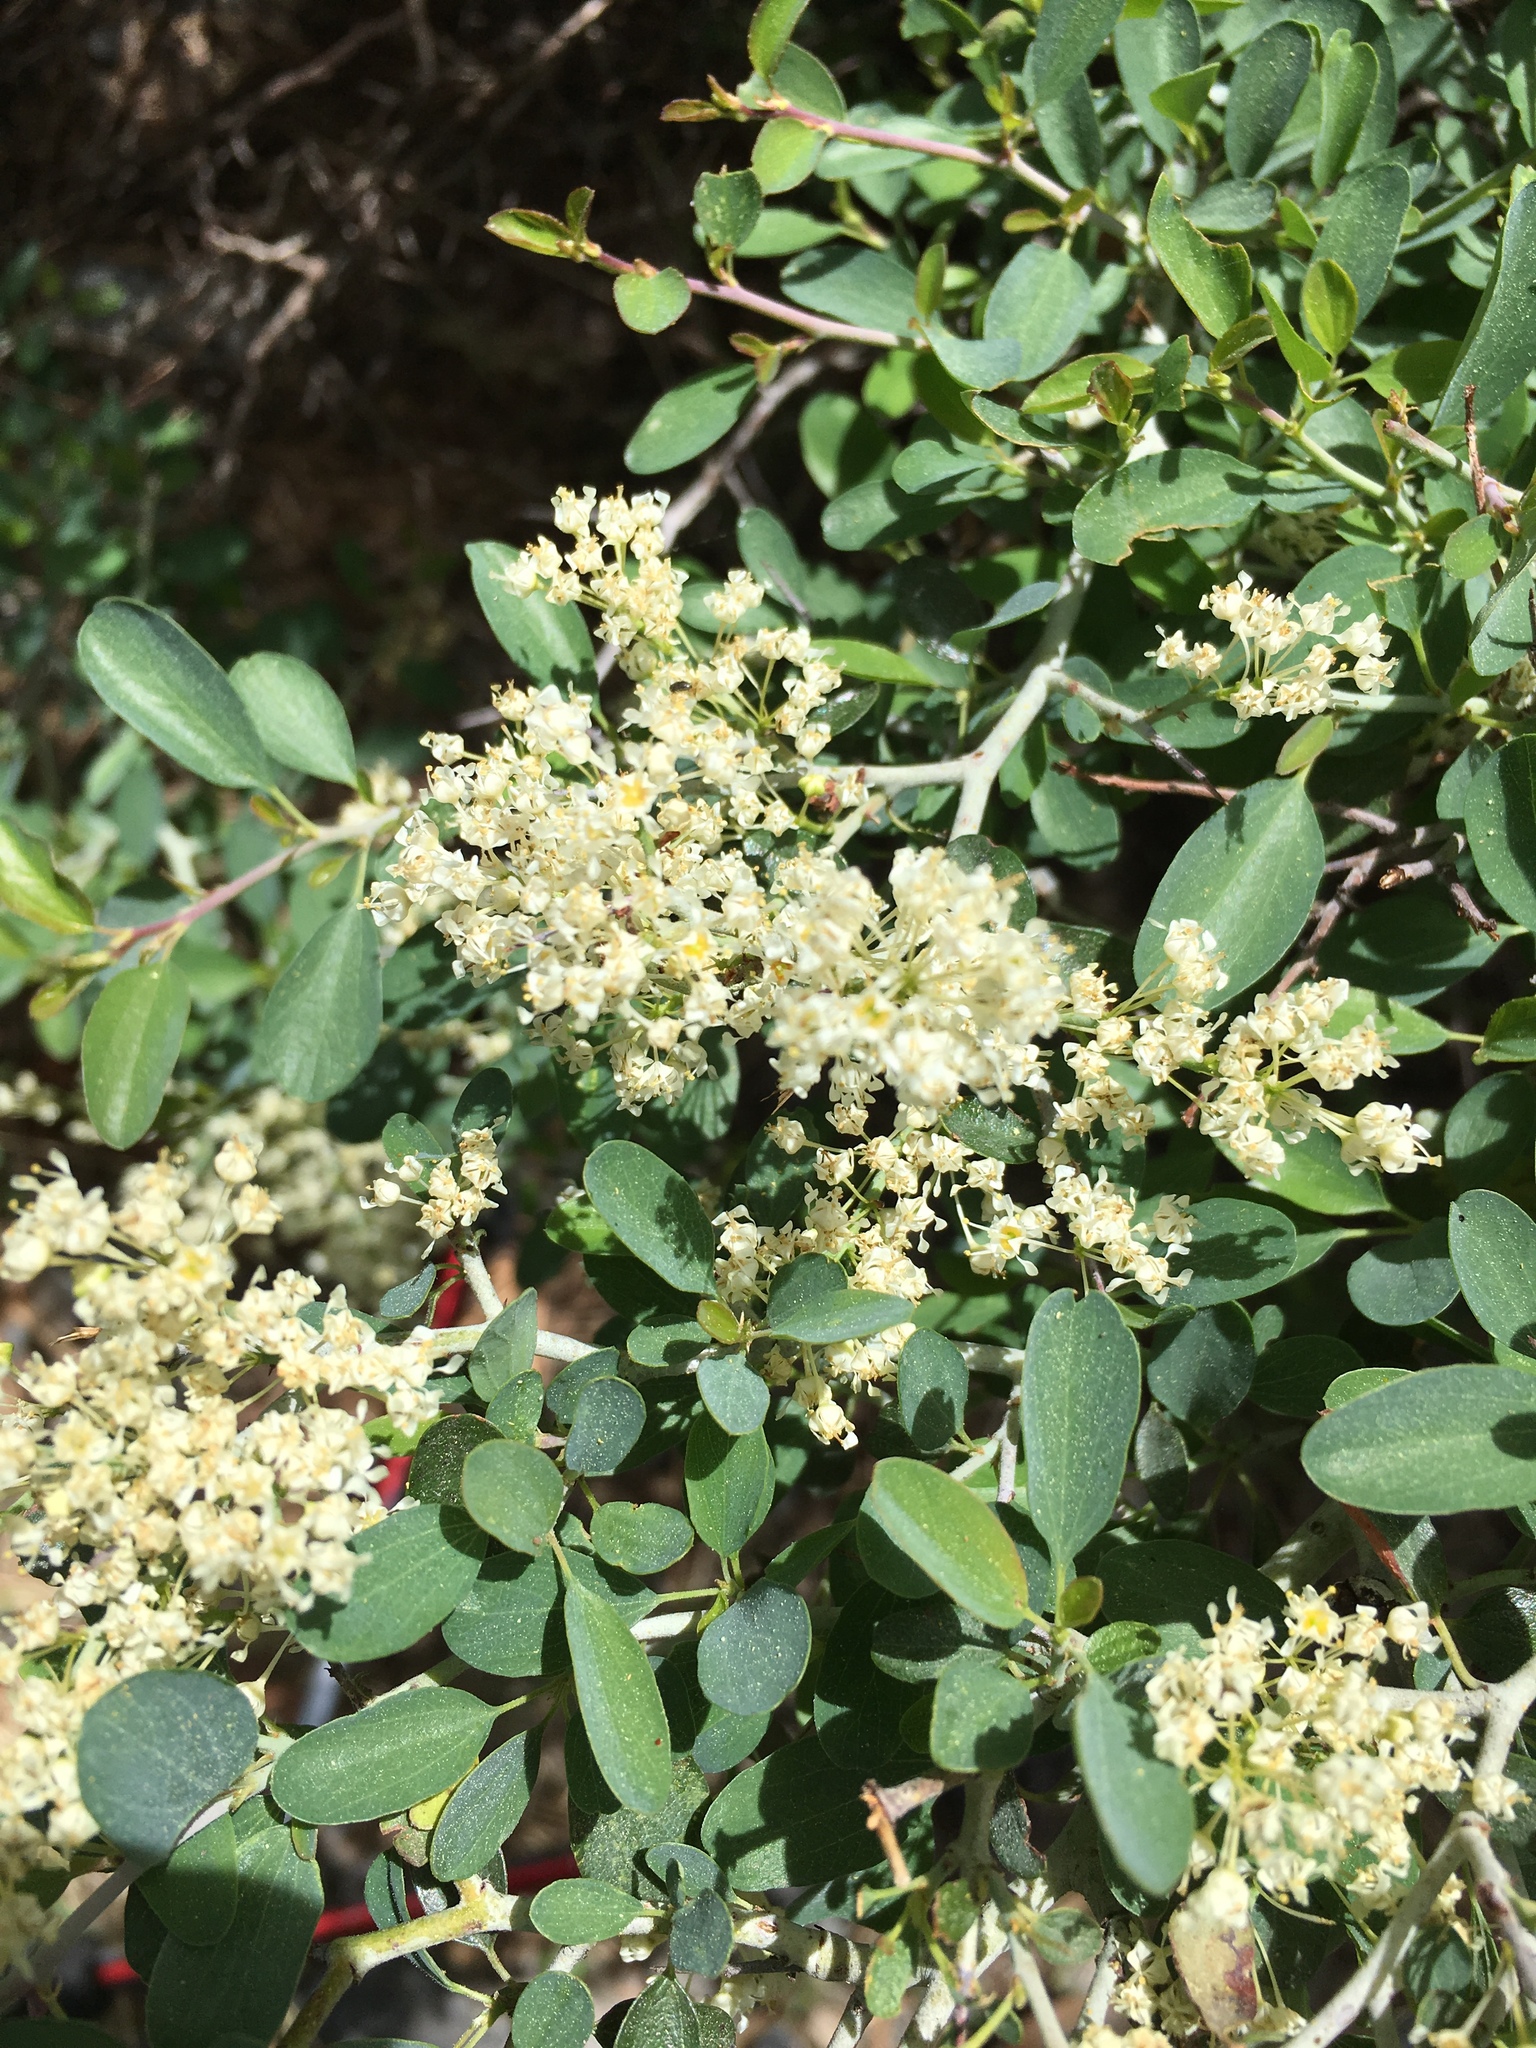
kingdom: Plantae
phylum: Tracheophyta
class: Magnoliopsida
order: Rosales
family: Rhamnaceae
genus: Ceanothus
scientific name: Ceanothus cordulatus
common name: Mountain whitethorn
